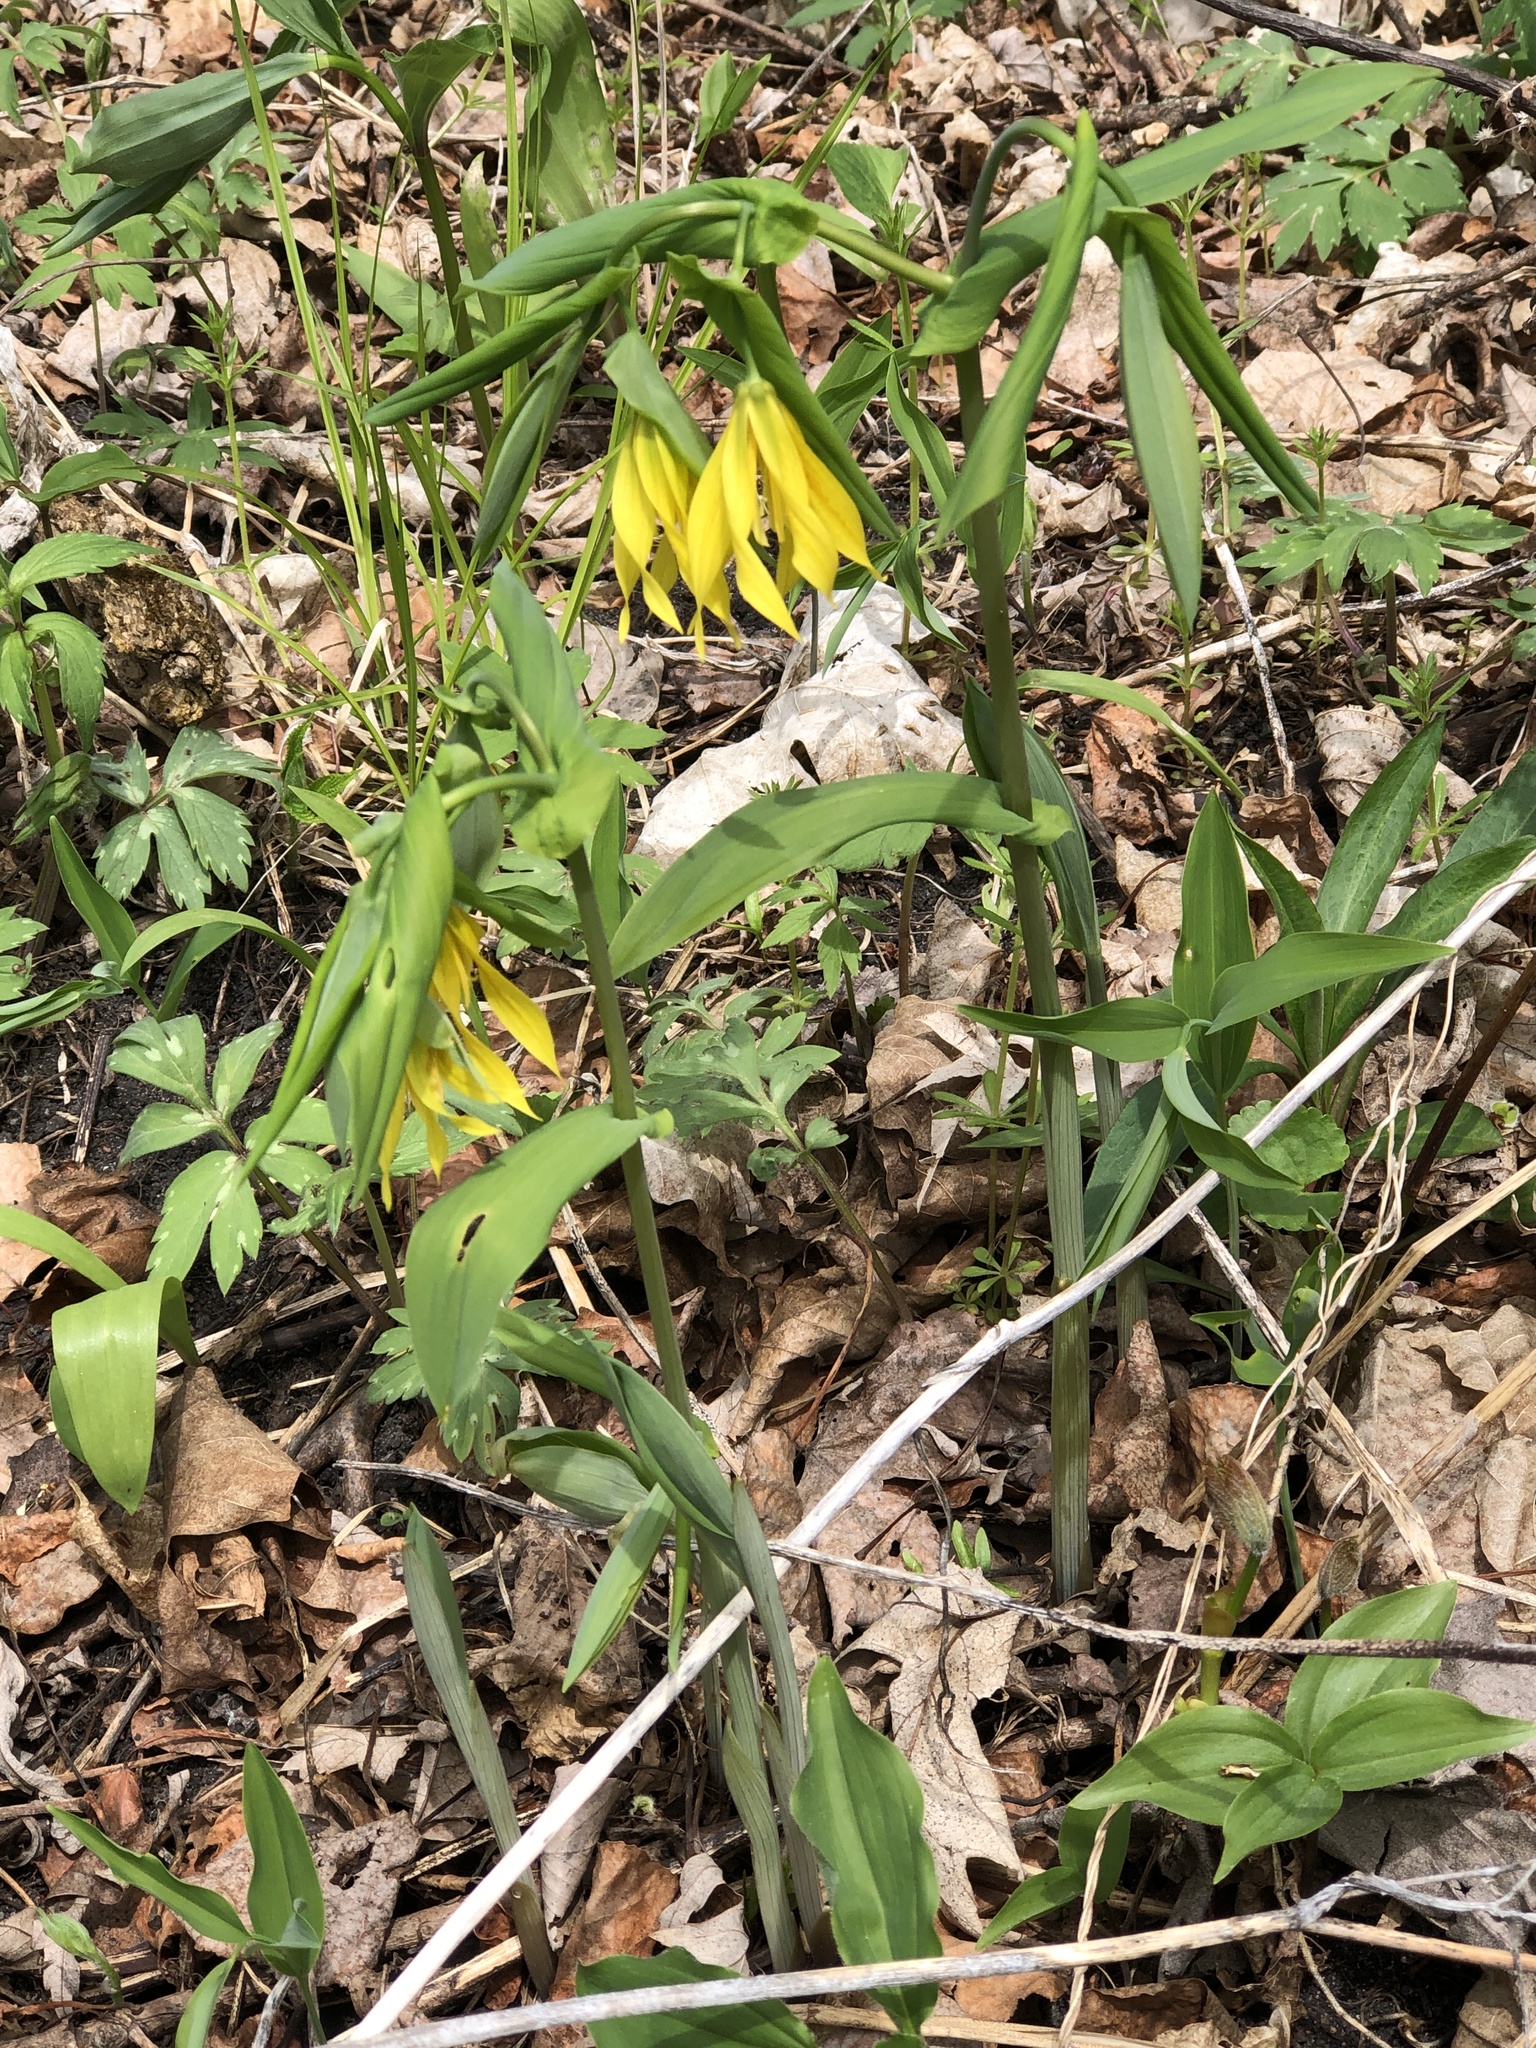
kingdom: Plantae
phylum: Tracheophyta
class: Liliopsida
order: Liliales
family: Colchicaceae
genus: Uvularia
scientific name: Uvularia grandiflora
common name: Bellwort
